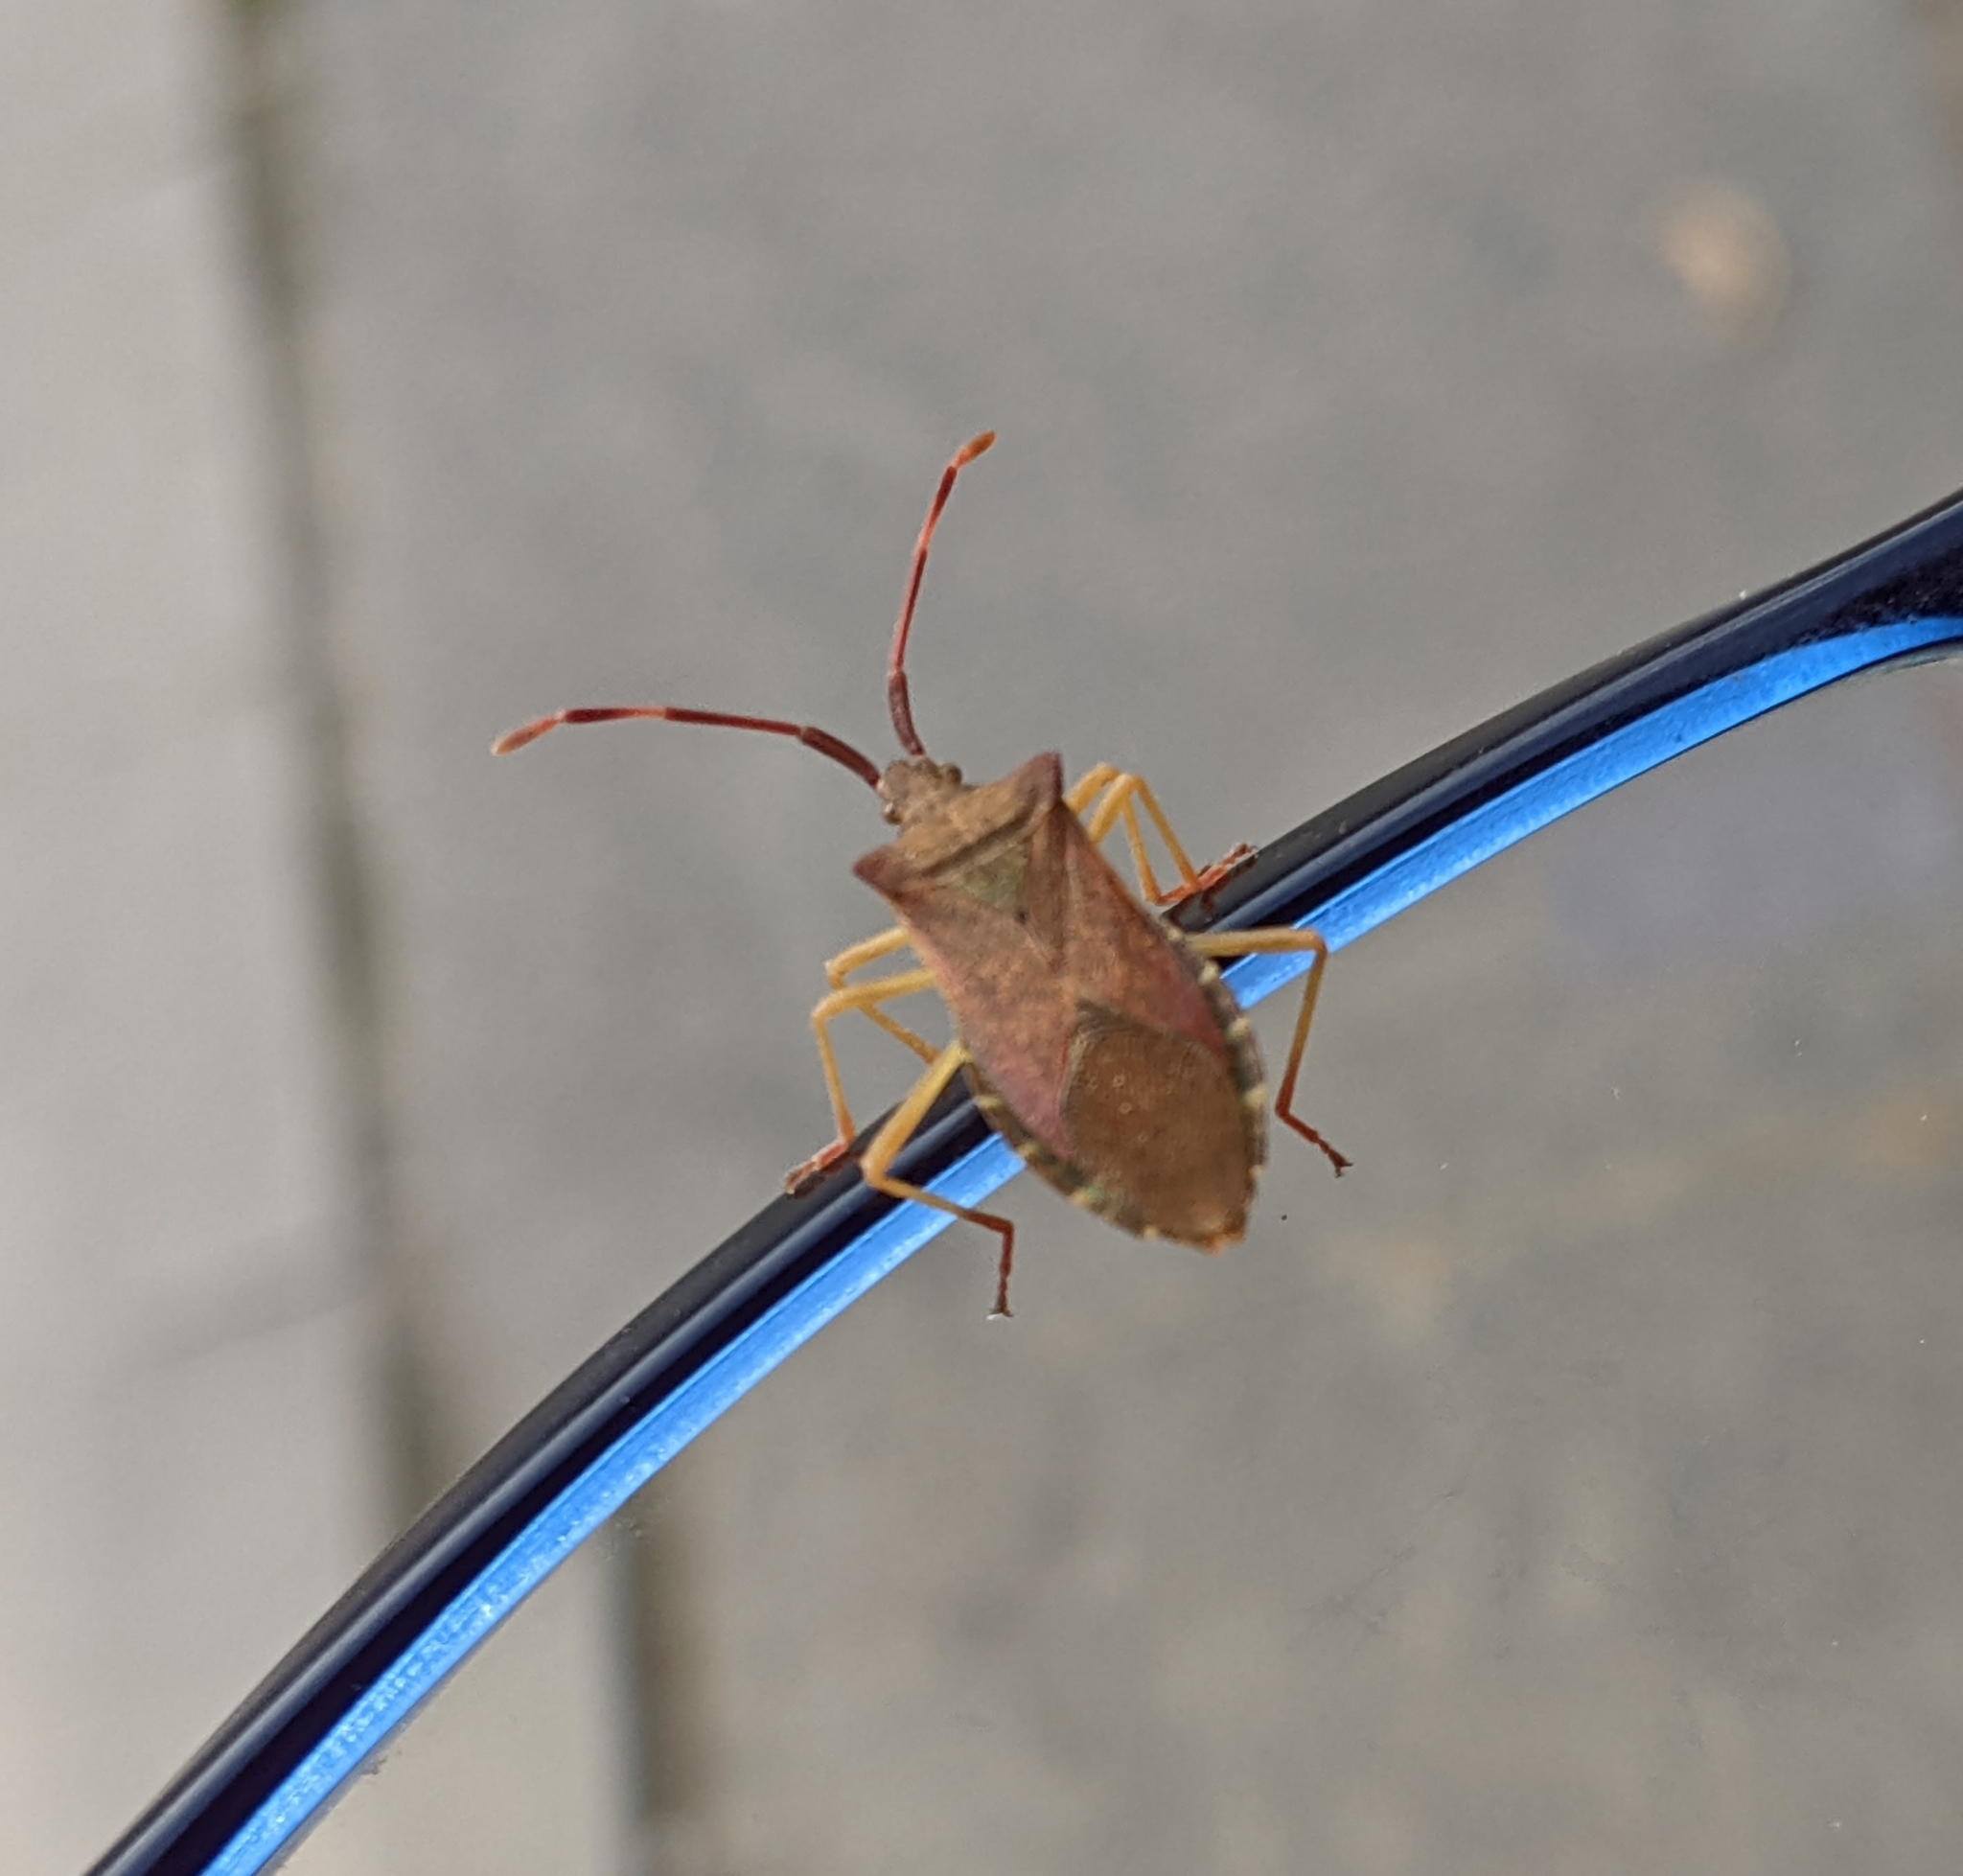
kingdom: Animalia
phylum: Arthropoda
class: Insecta
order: Hemiptera
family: Coreidae
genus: Gonocerus
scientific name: Gonocerus acuteangulatus
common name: Box bug
